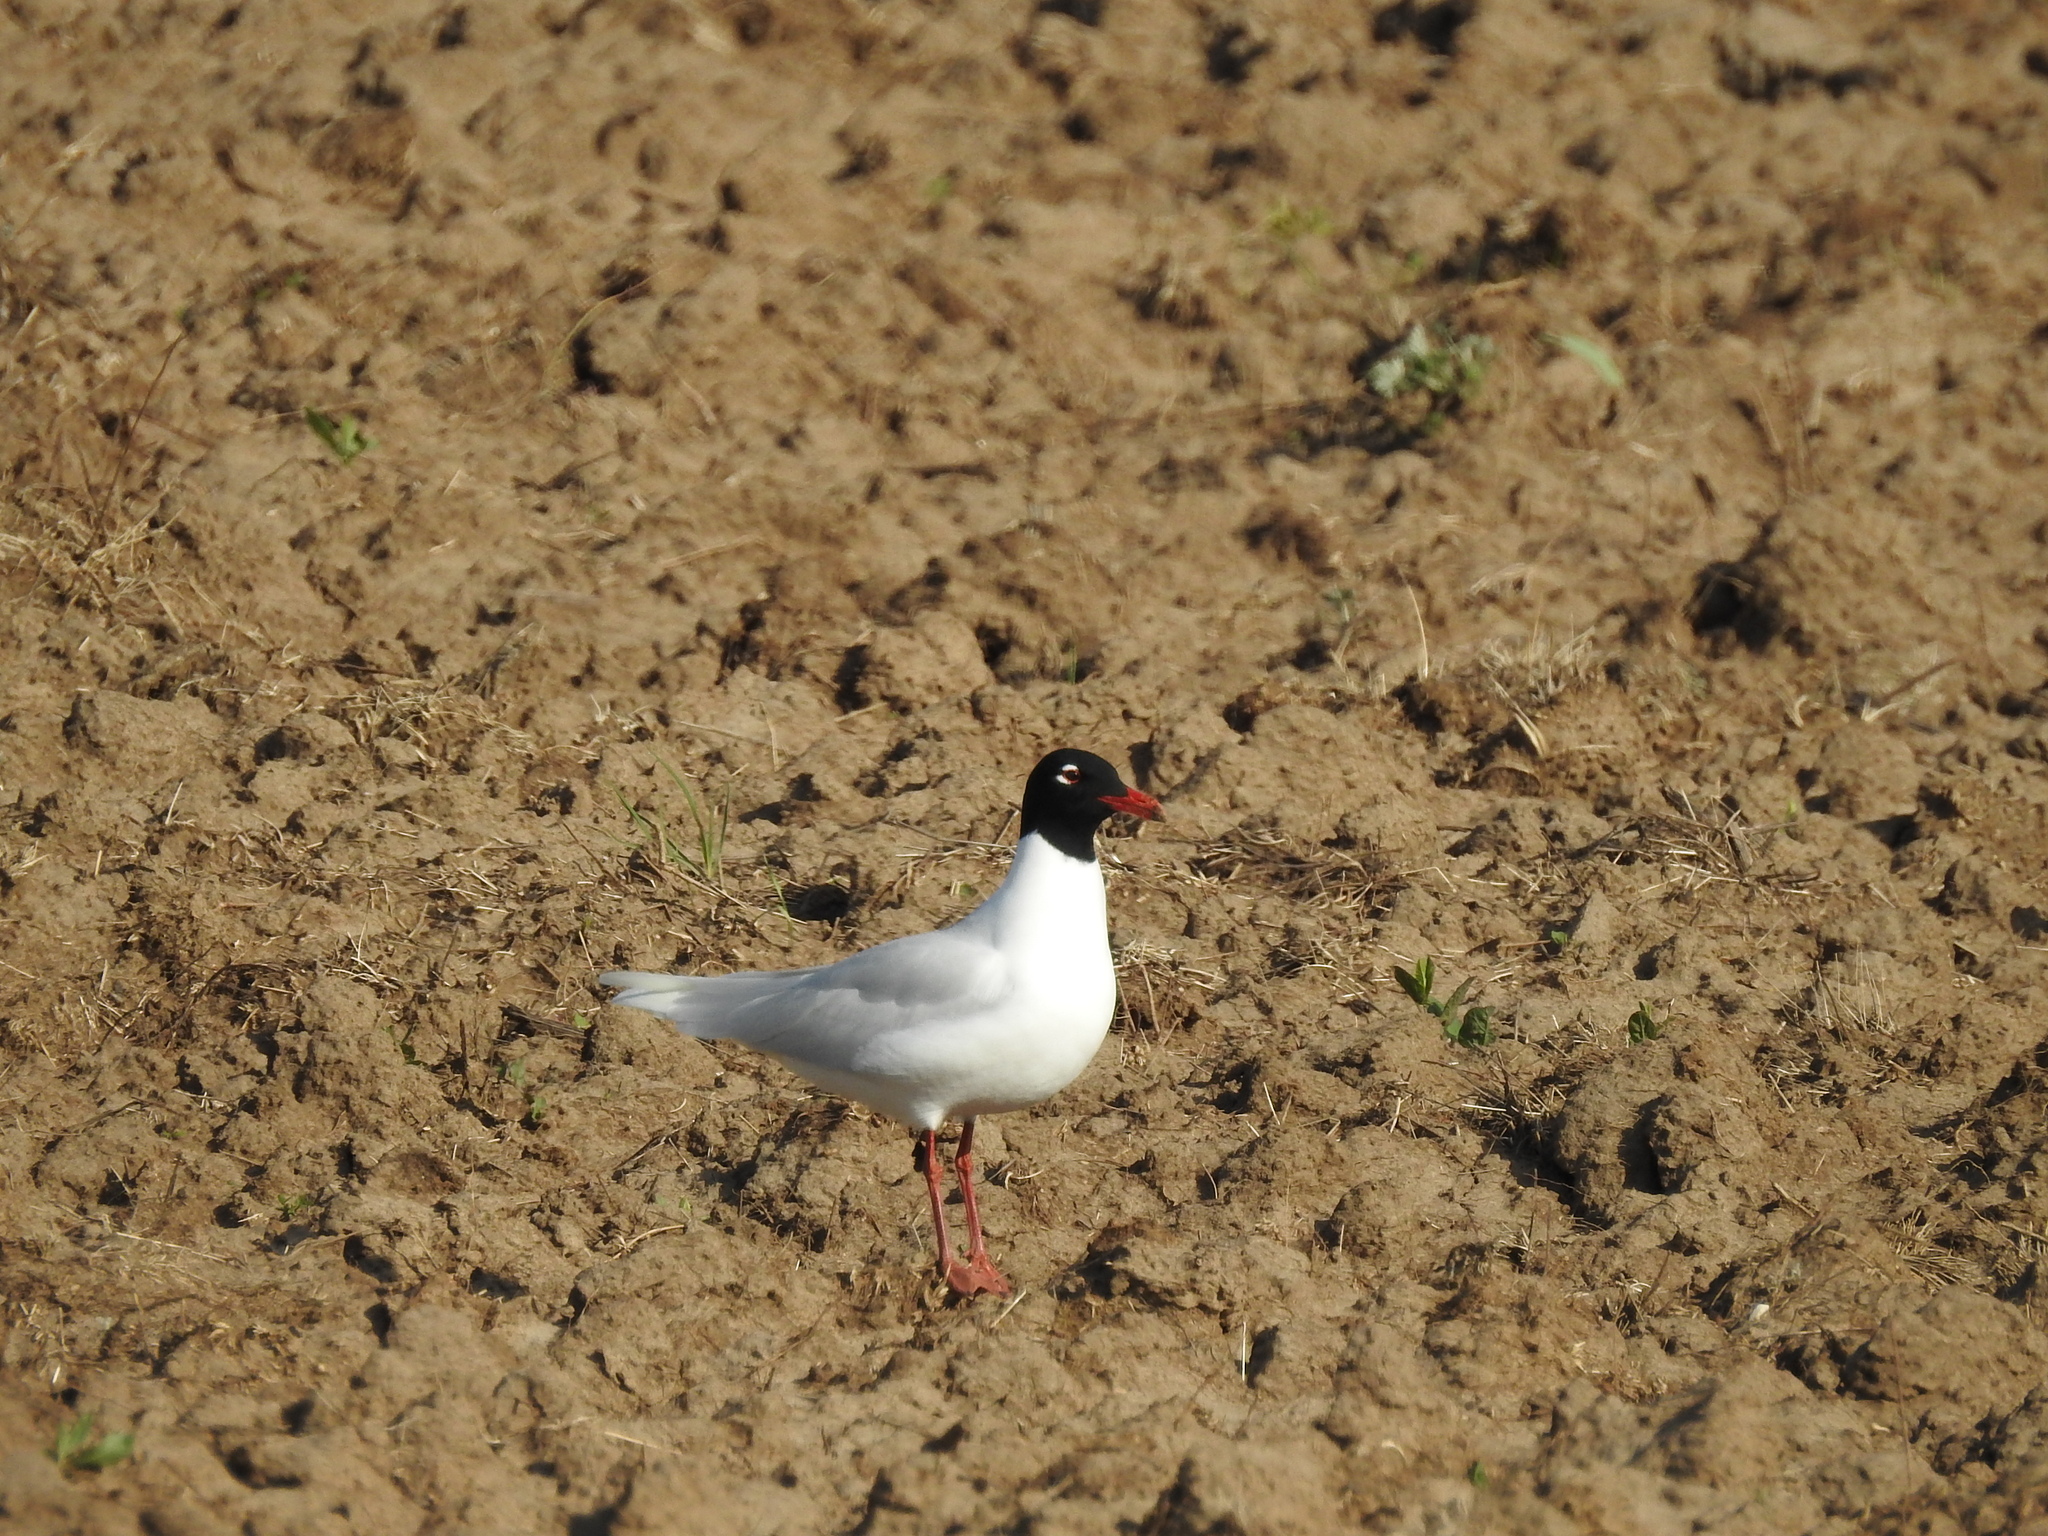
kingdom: Animalia
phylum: Chordata
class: Aves
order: Charadriiformes
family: Laridae
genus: Ichthyaetus
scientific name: Ichthyaetus melanocephalus
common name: Mediterranean gull
